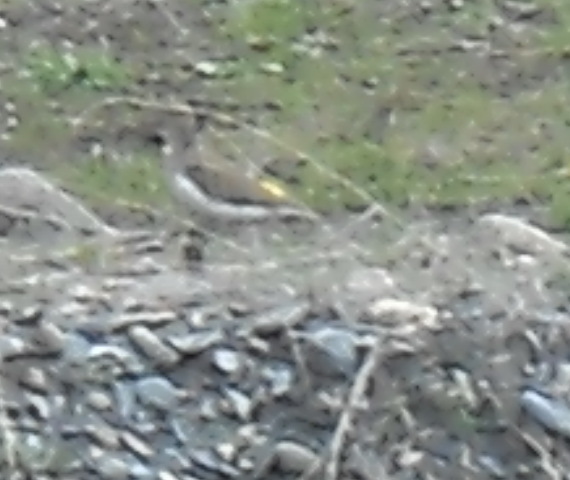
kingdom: Animalia
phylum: Chordata
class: Aves
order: Charadriiformes
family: Scolopacidae
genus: Actitis
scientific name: Actitis hypoleucos
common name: Common sandpiper
